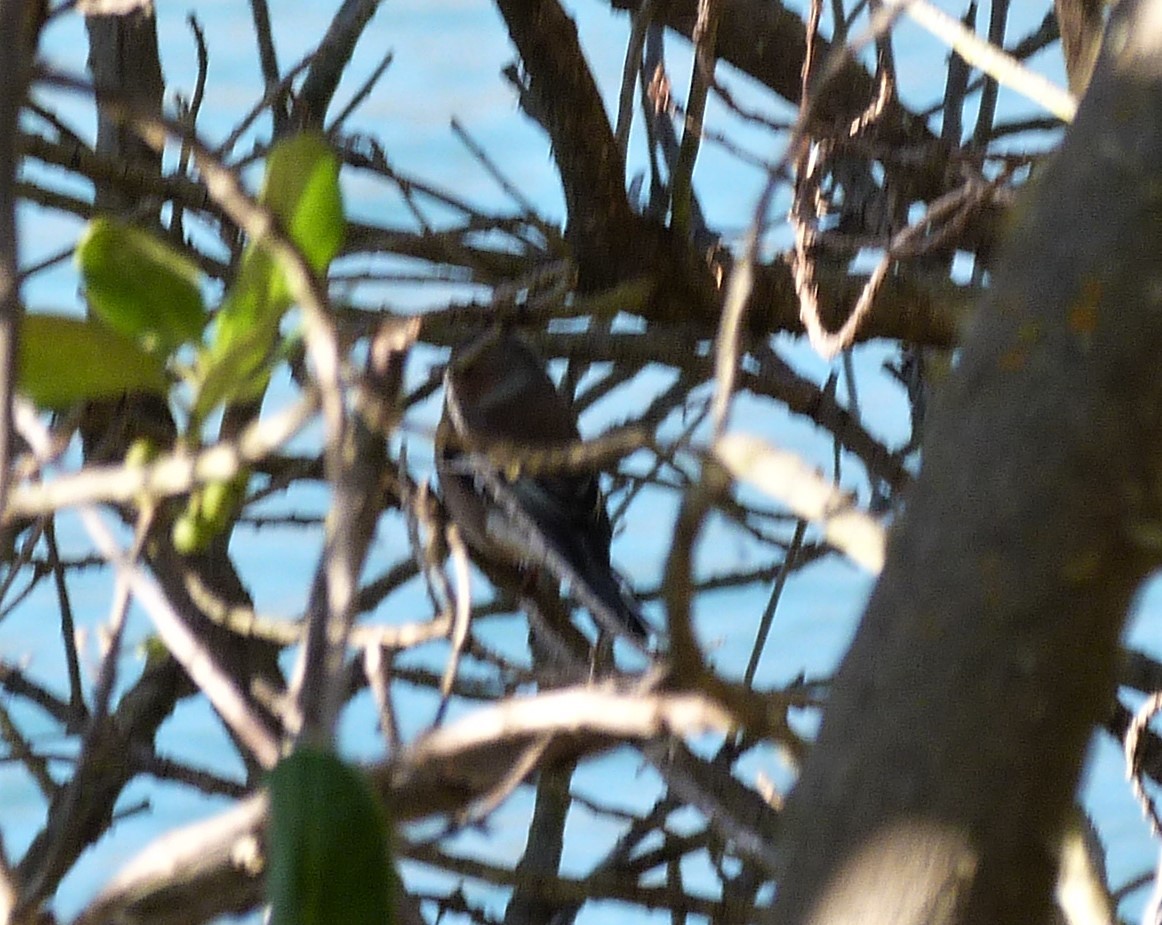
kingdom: Animalia
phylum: Chordata
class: Aves
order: Passeriformes
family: Fringillidae
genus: Fringilla
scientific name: Fringilla coelebs
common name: Common chaffinch
